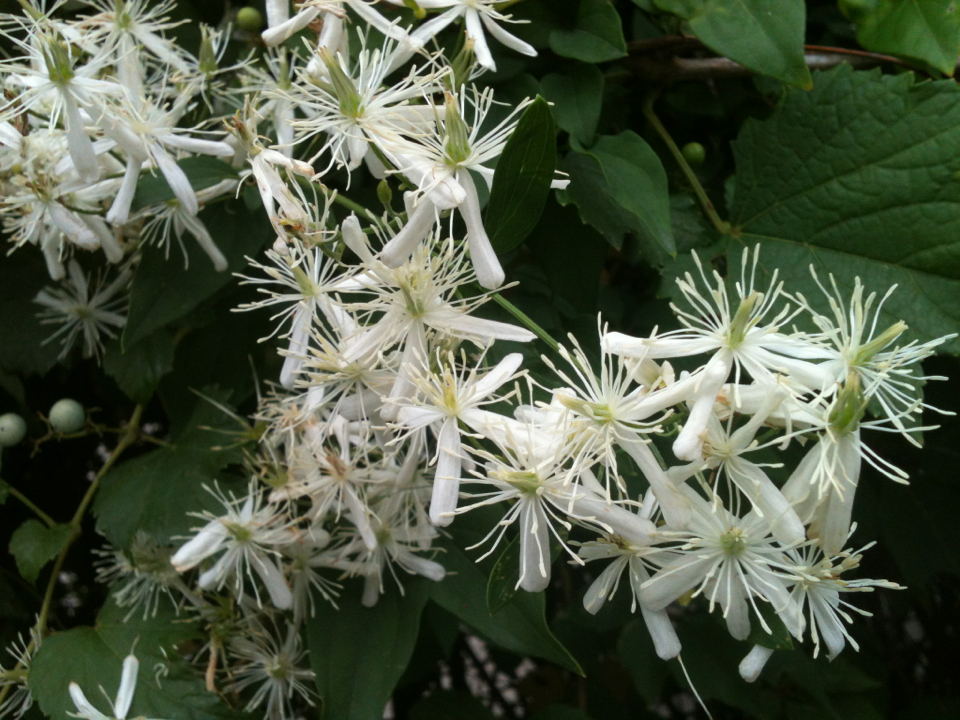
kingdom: Plantae
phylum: Tracheophyta
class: Magnoliopsida
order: Ranunculales
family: Ranunculaceae
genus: Clematis
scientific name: Clematis terniflora
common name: Sweet autumn clematis
